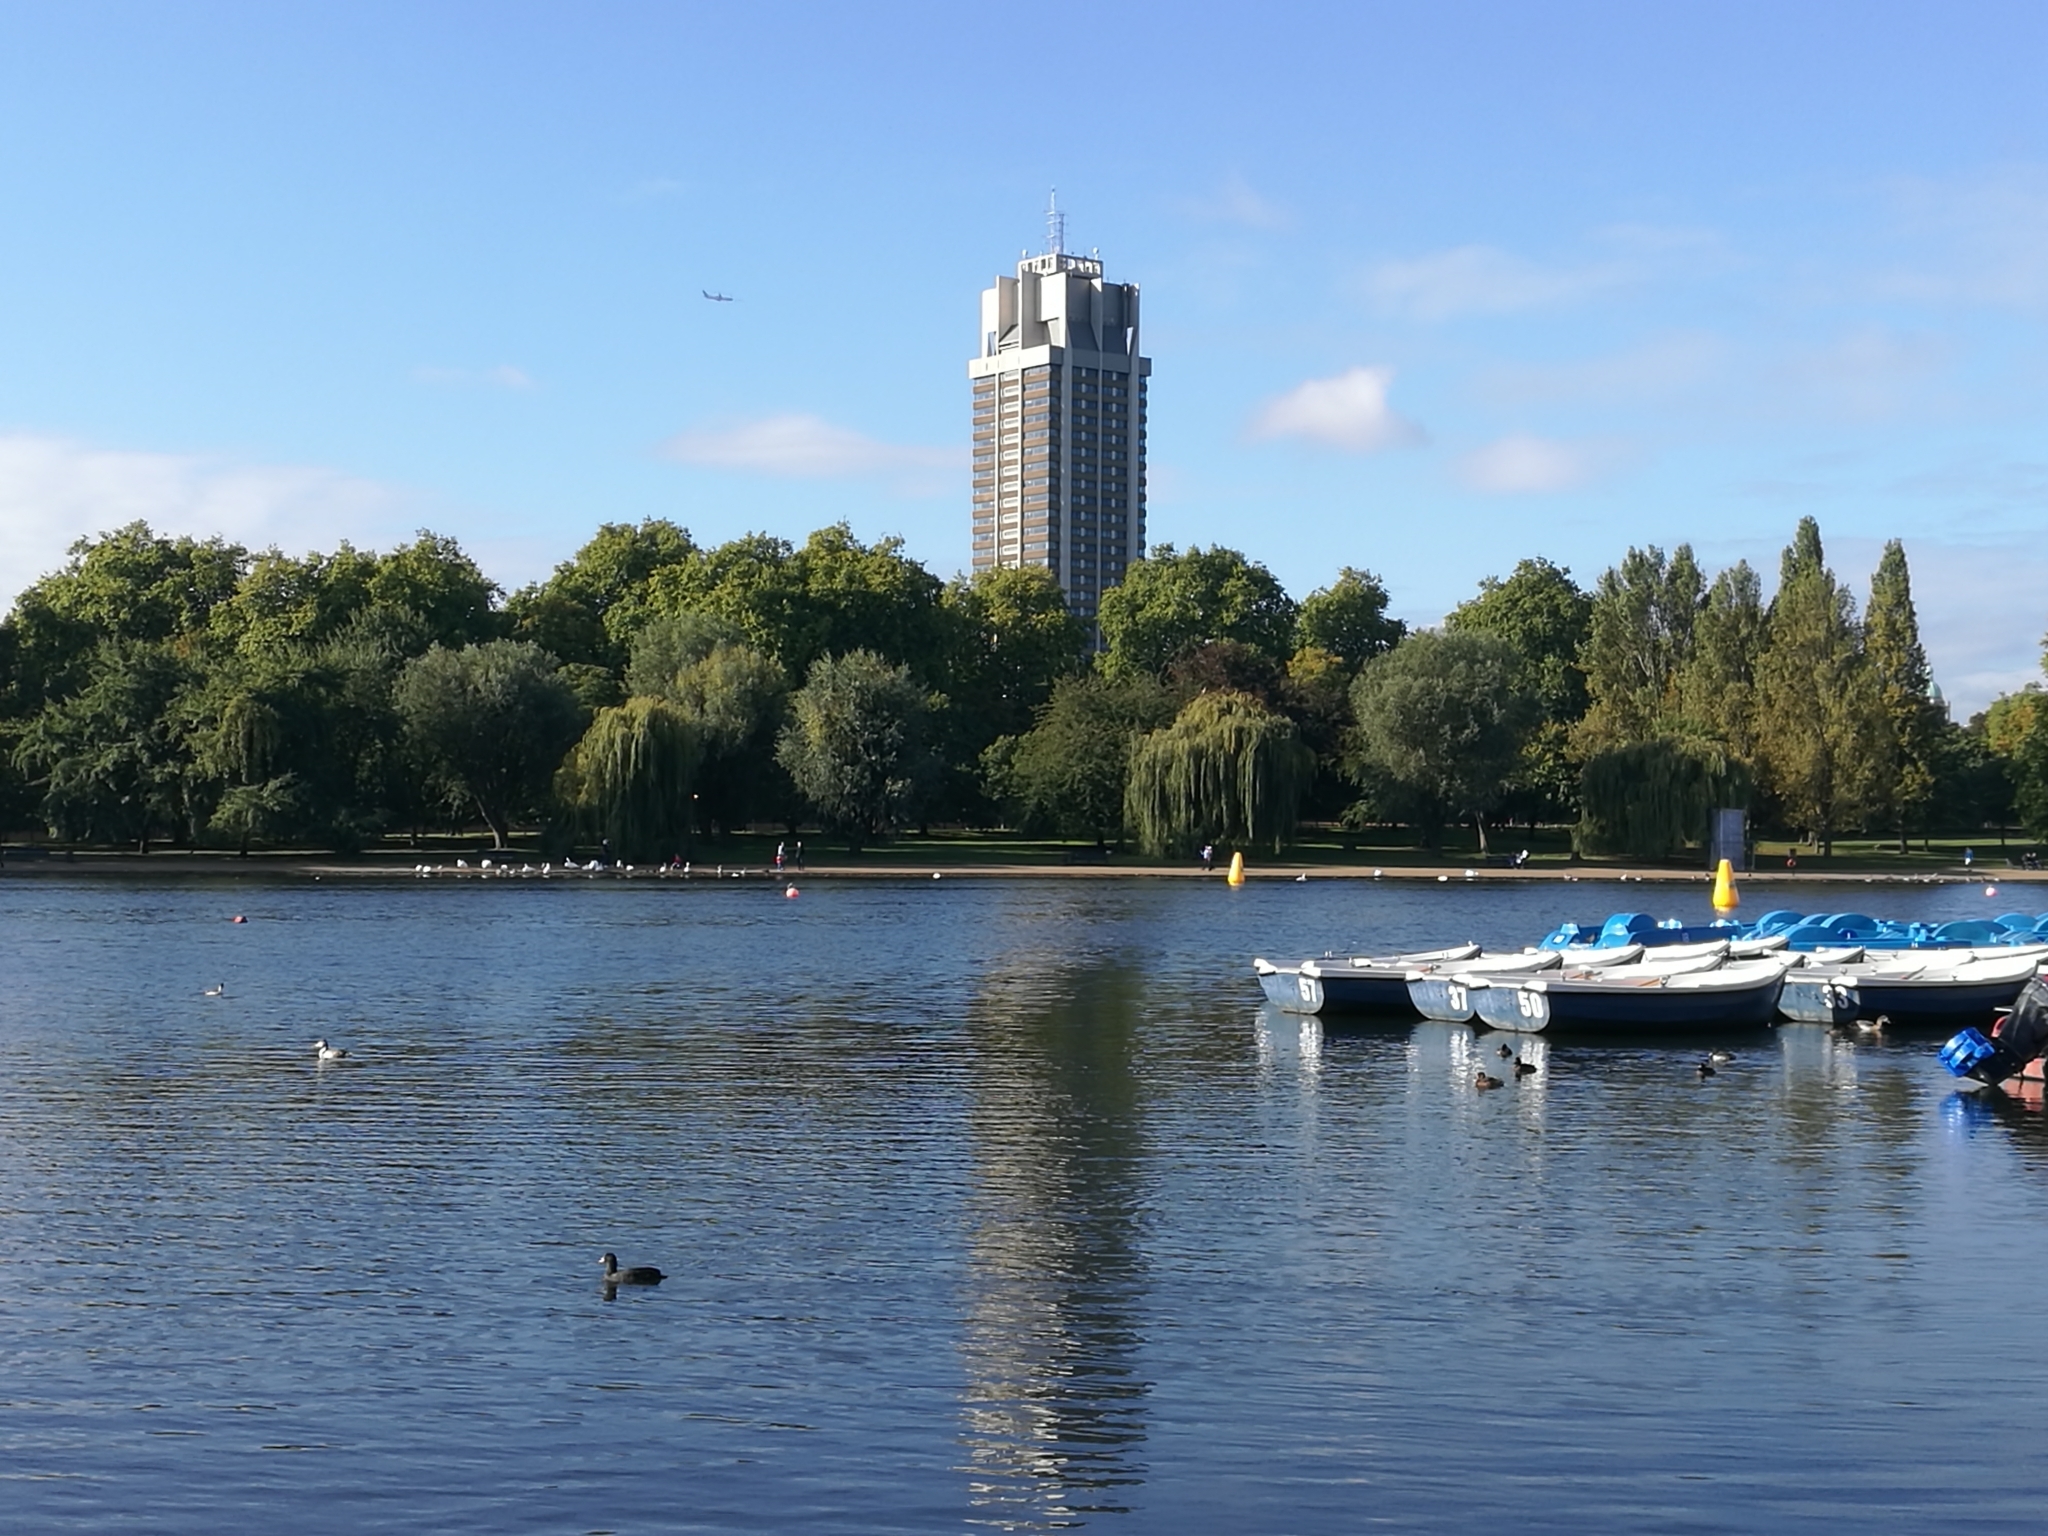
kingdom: Animalia
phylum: Chordata
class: Aves
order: Podicipediformes
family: Podicipedidae
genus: Podiceps
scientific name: Podiceps cristatus
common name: Great crested grebe
